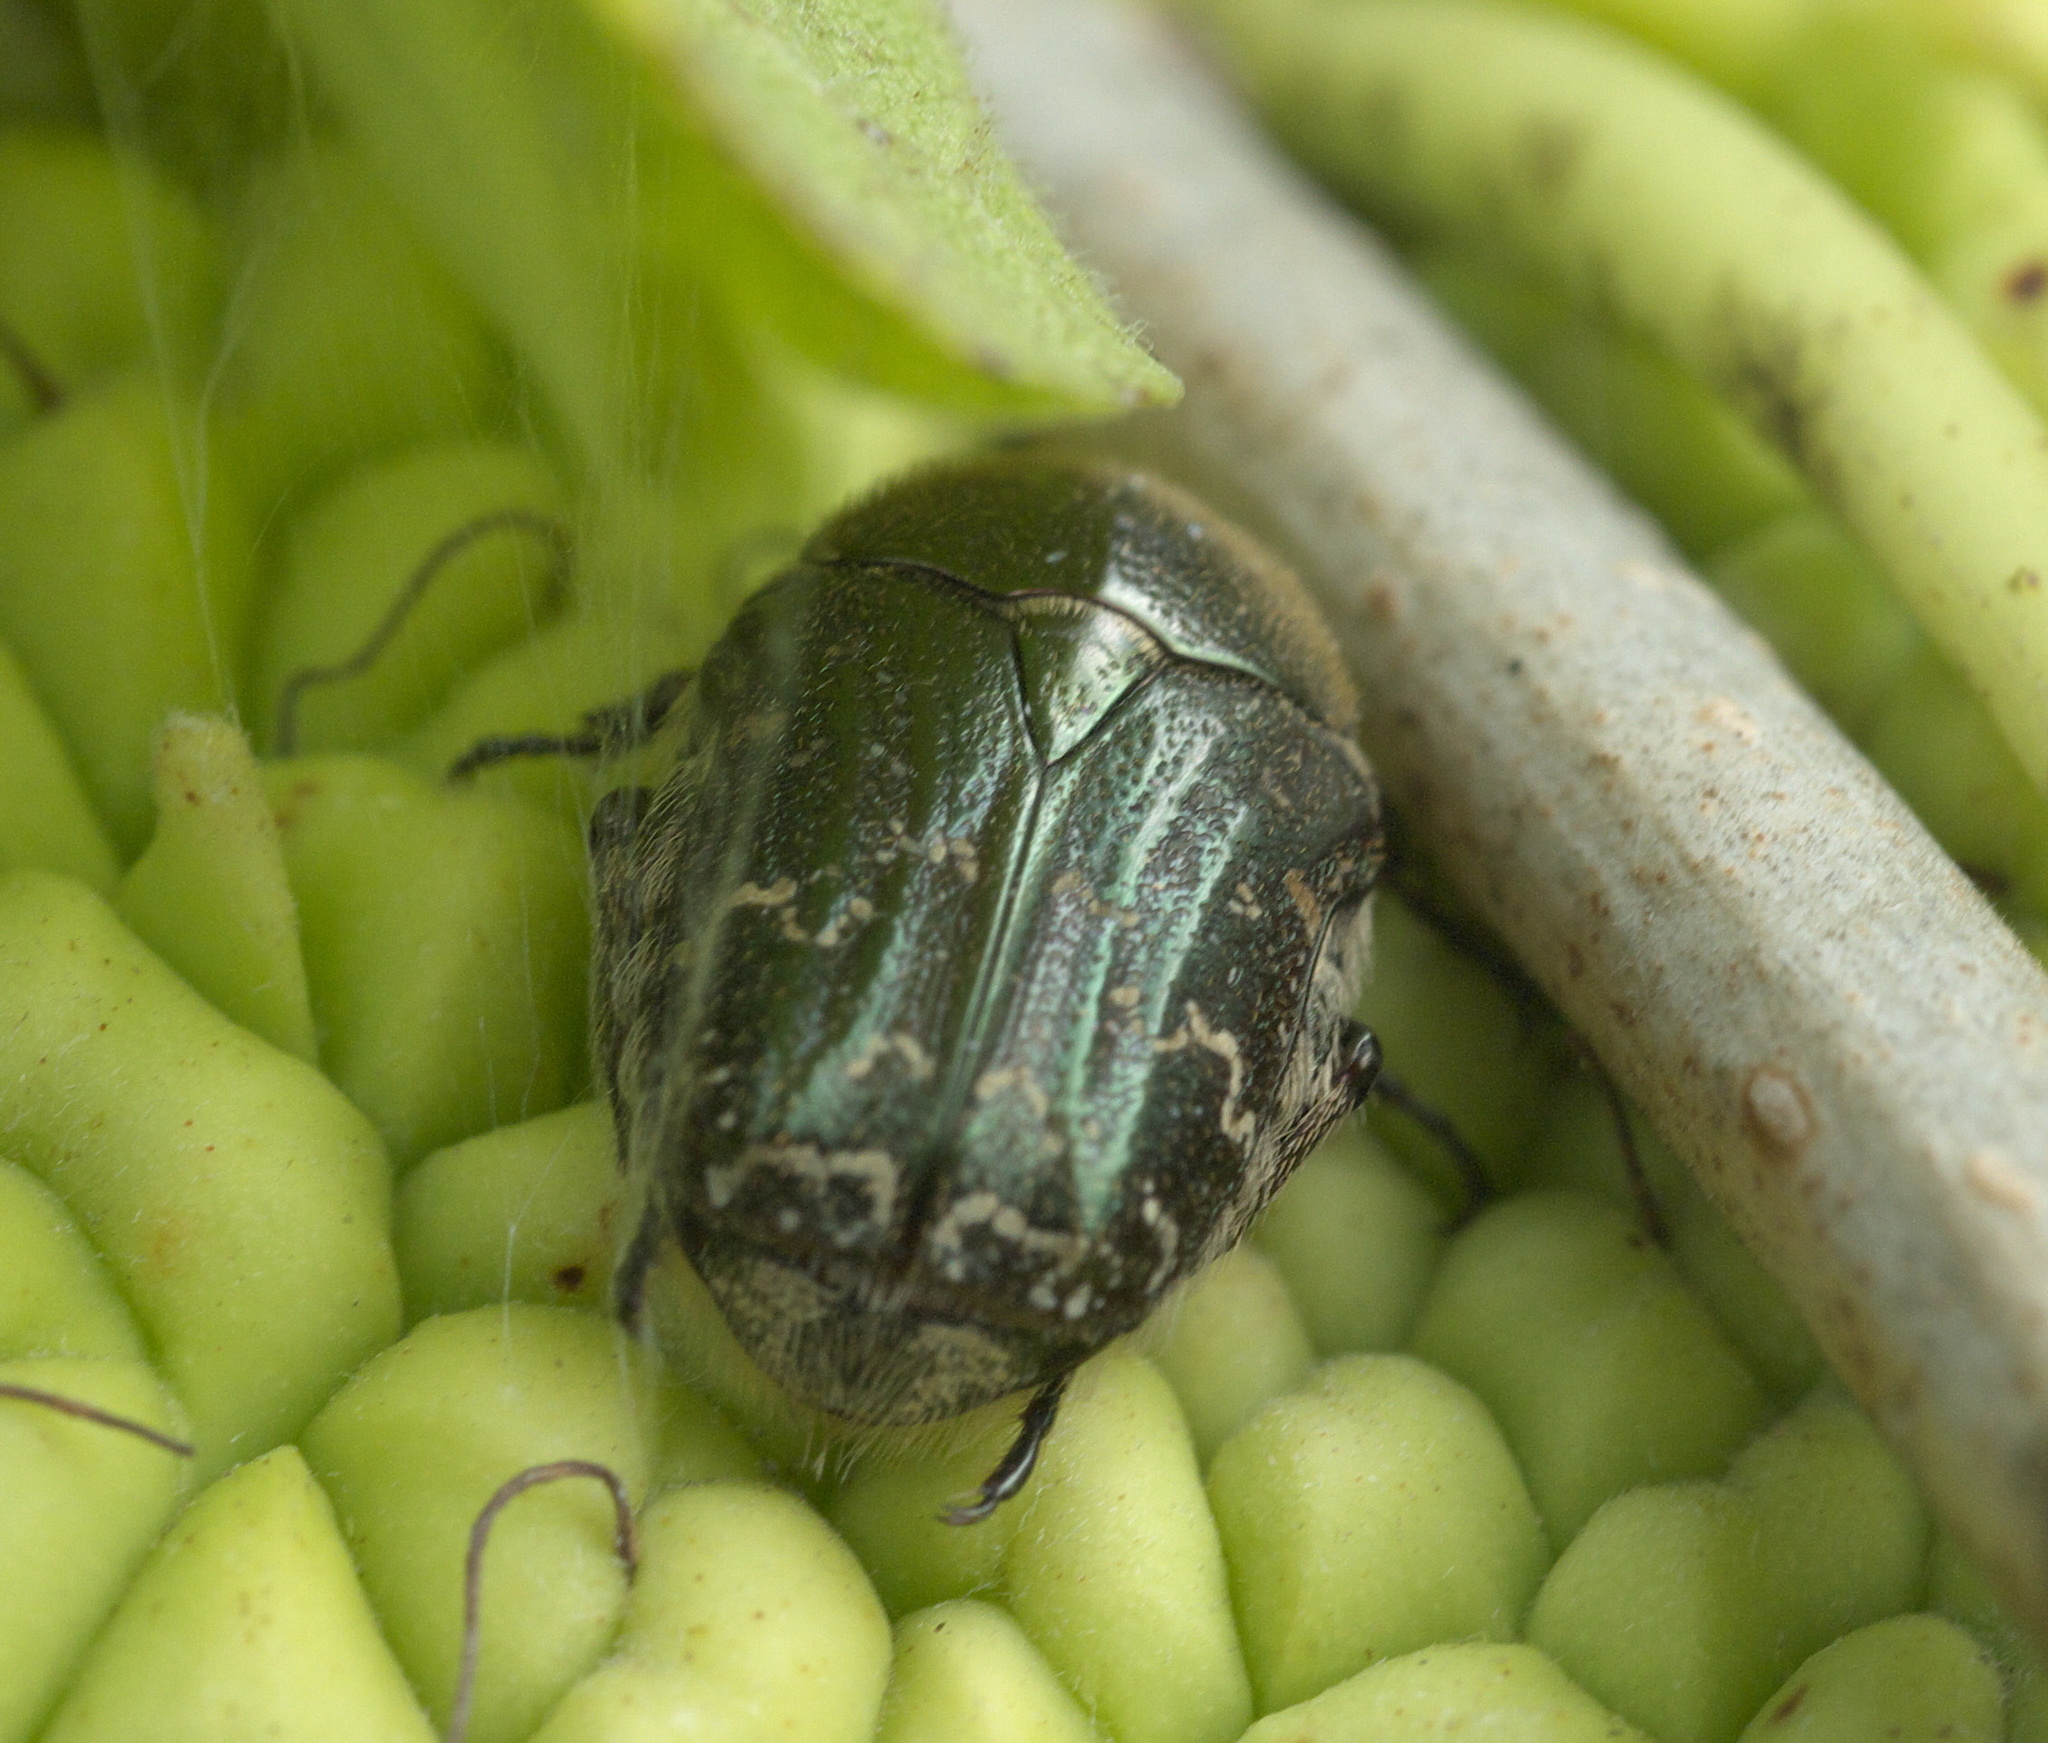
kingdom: Animalia
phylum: Arthropoda
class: Insecta
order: Coleoptera
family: Scarabaeidae
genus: Euphoria
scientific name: Euphoria sepulcralis
